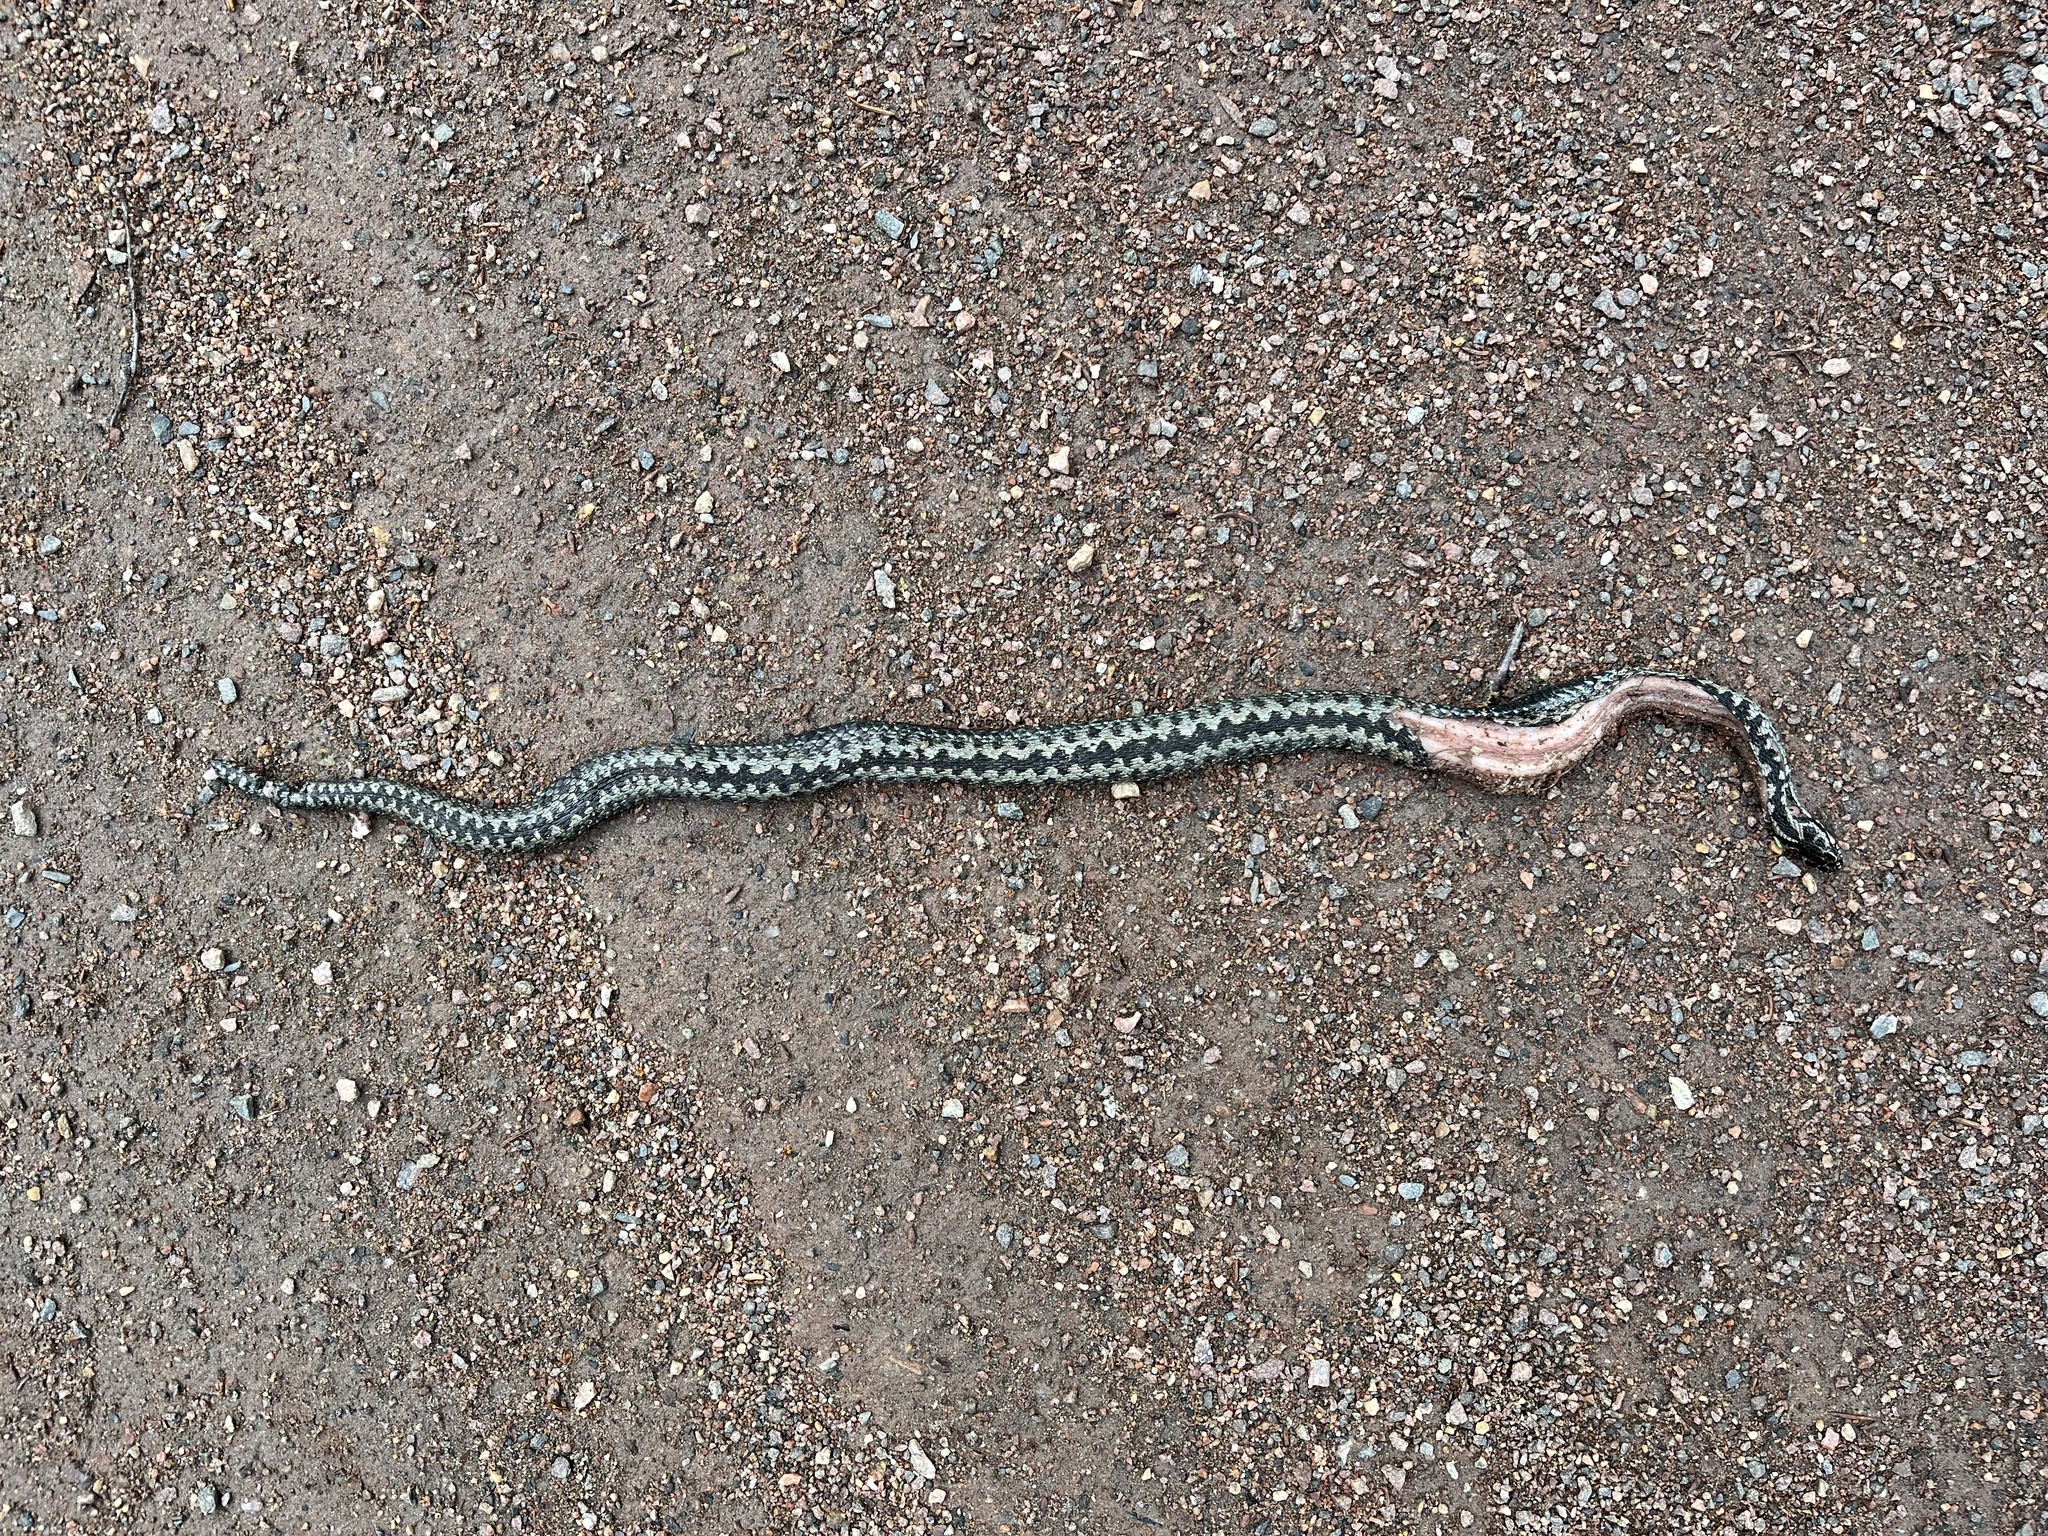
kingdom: Animalia
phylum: Chordata
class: Squamata
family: Viperidae
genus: Vipera
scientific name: Vipera berus
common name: Adder
